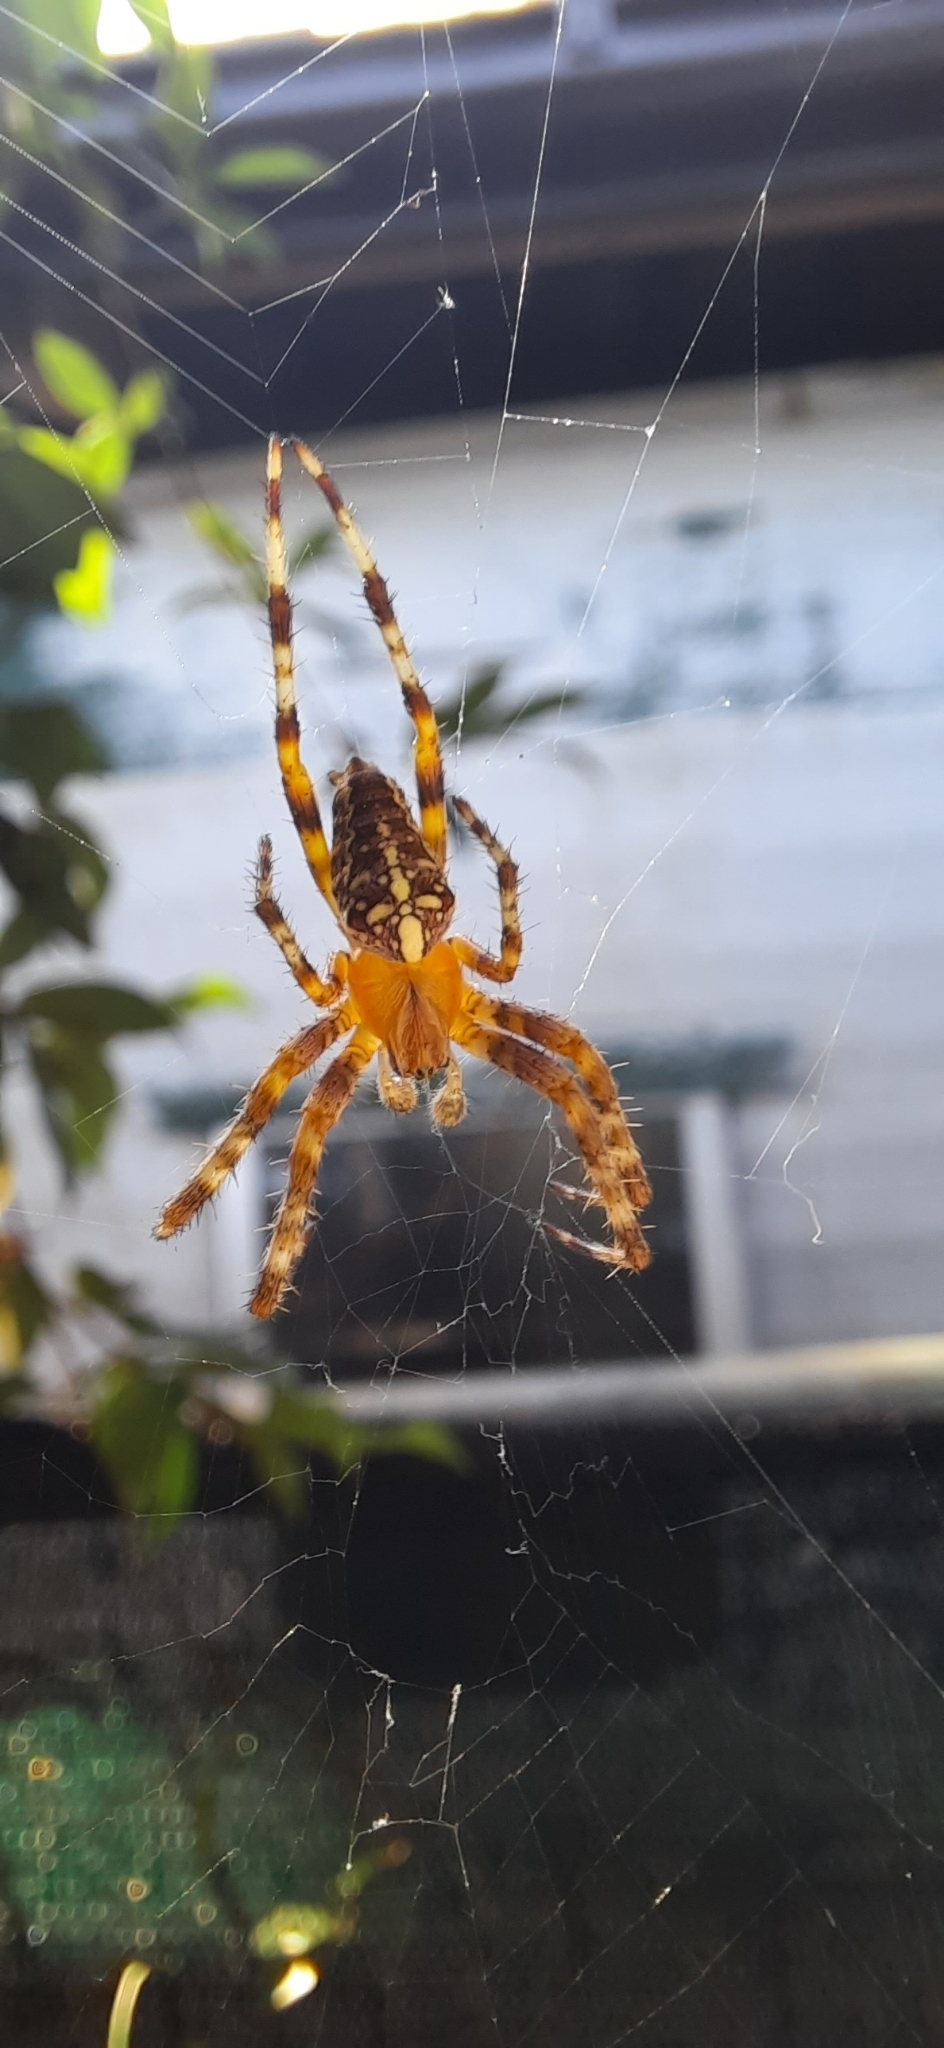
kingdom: Animalia
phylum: Arthropoda
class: Arachnida
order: Araneae
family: Araneidae
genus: Araneus
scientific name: Araneus diadematus
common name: Cross orbweaver
